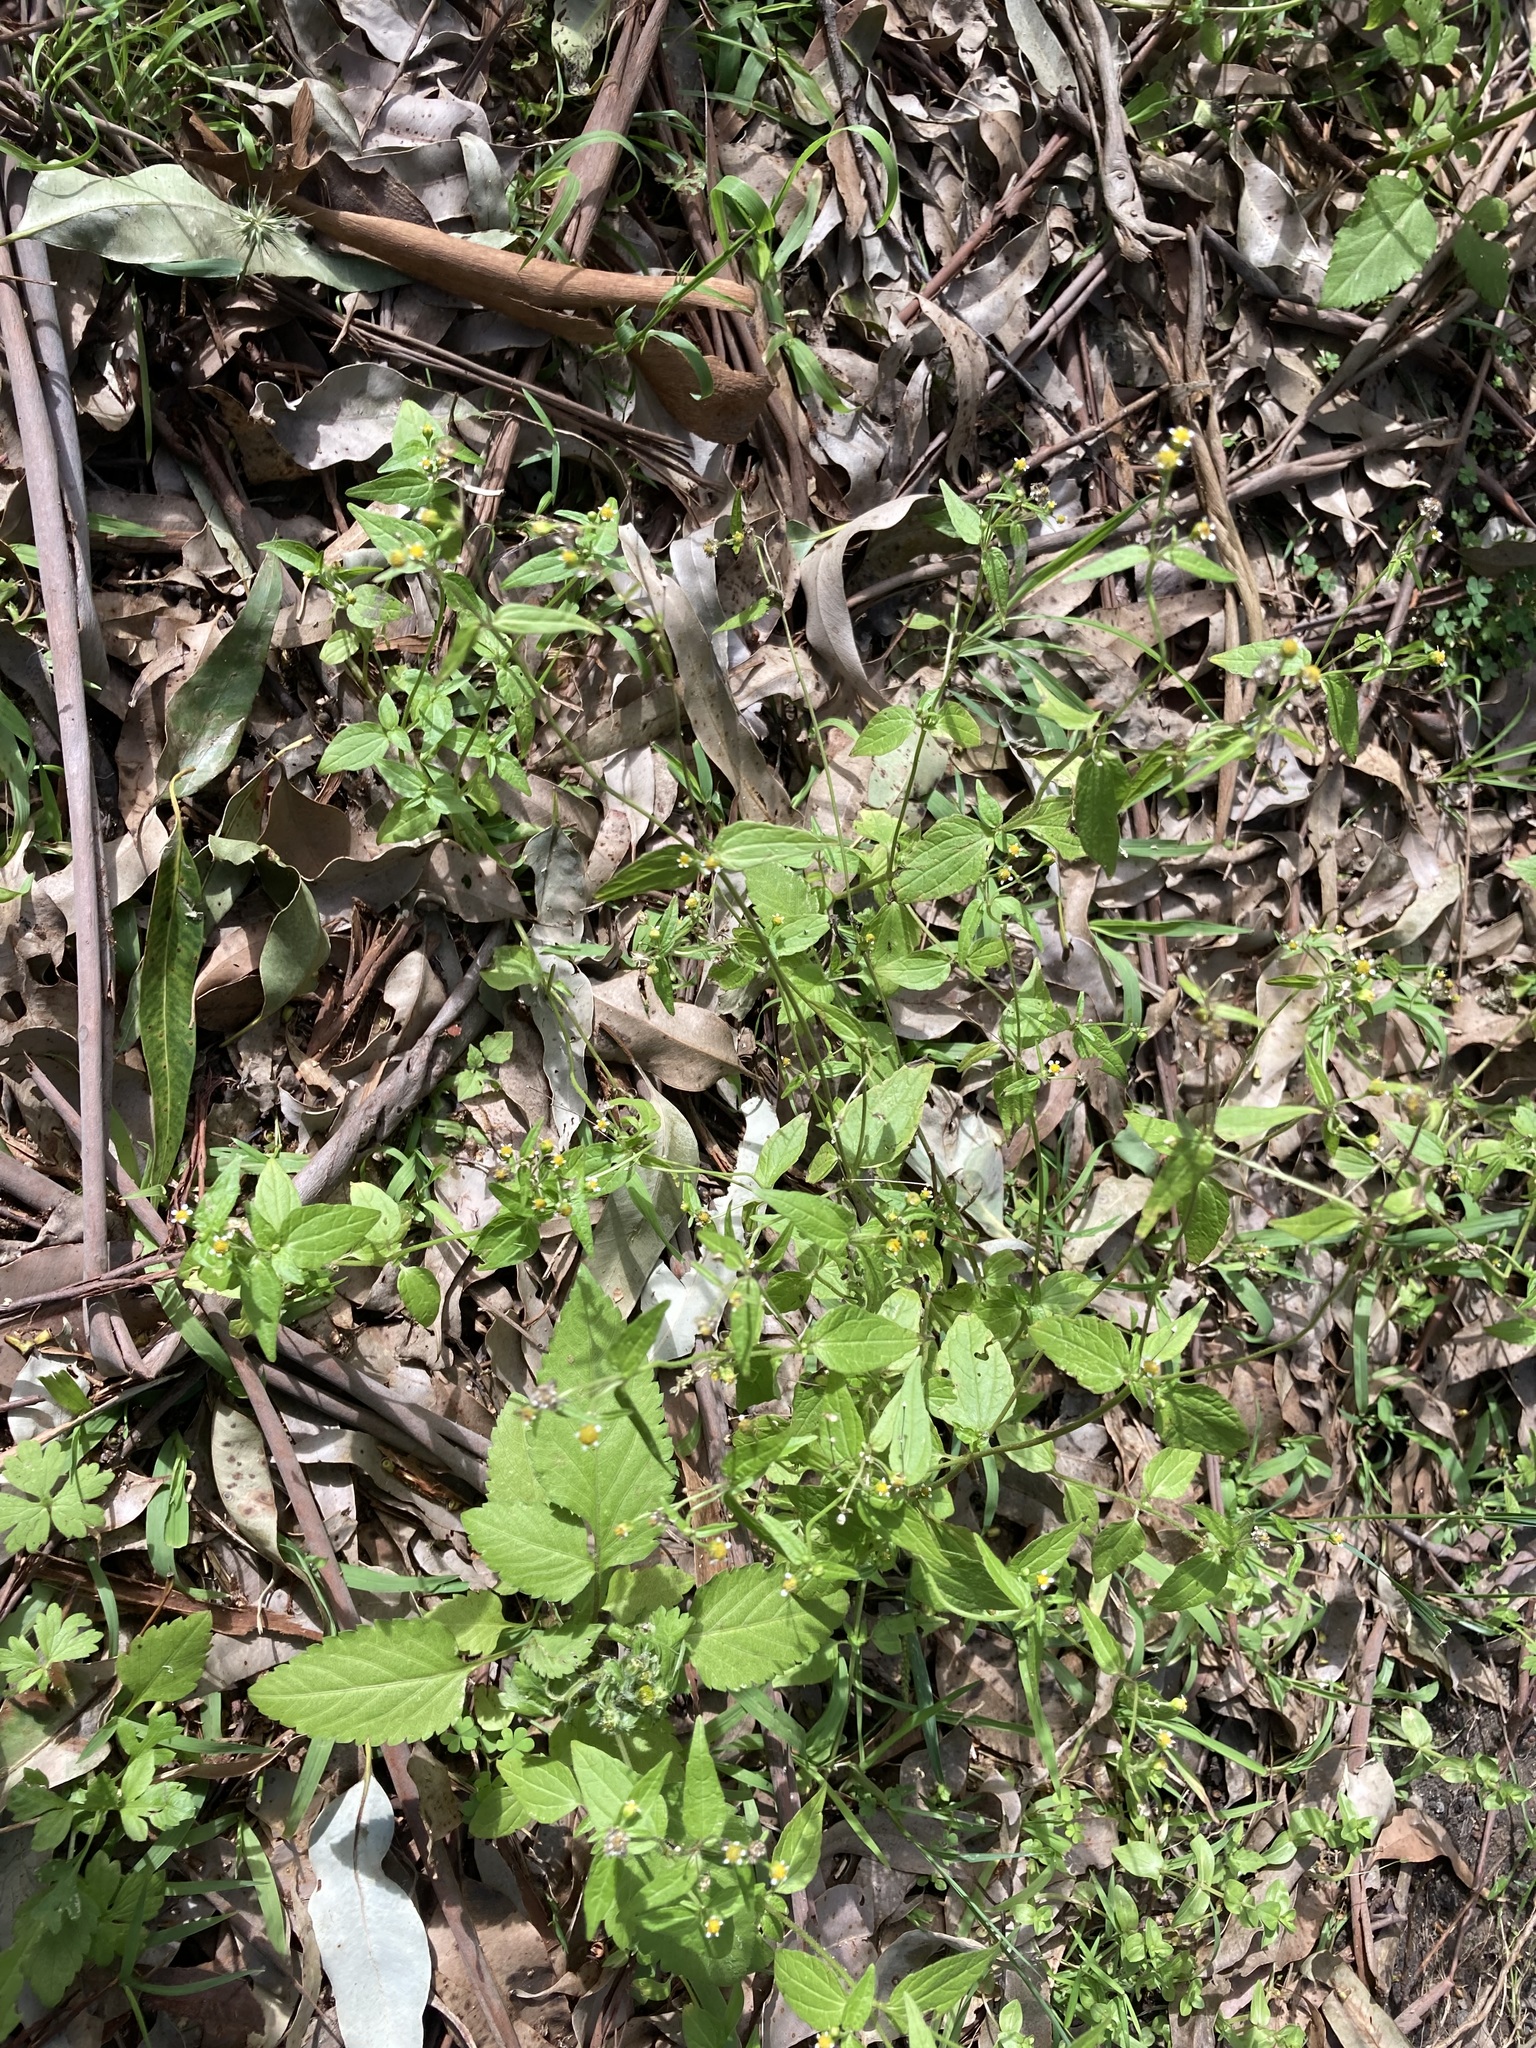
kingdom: Plantae
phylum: Tracheophyta
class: Magnoliopsida
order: Asterales
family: Asteraceae
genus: Galinsoga
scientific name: Galinsoga parviflora
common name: Gallant soldier
